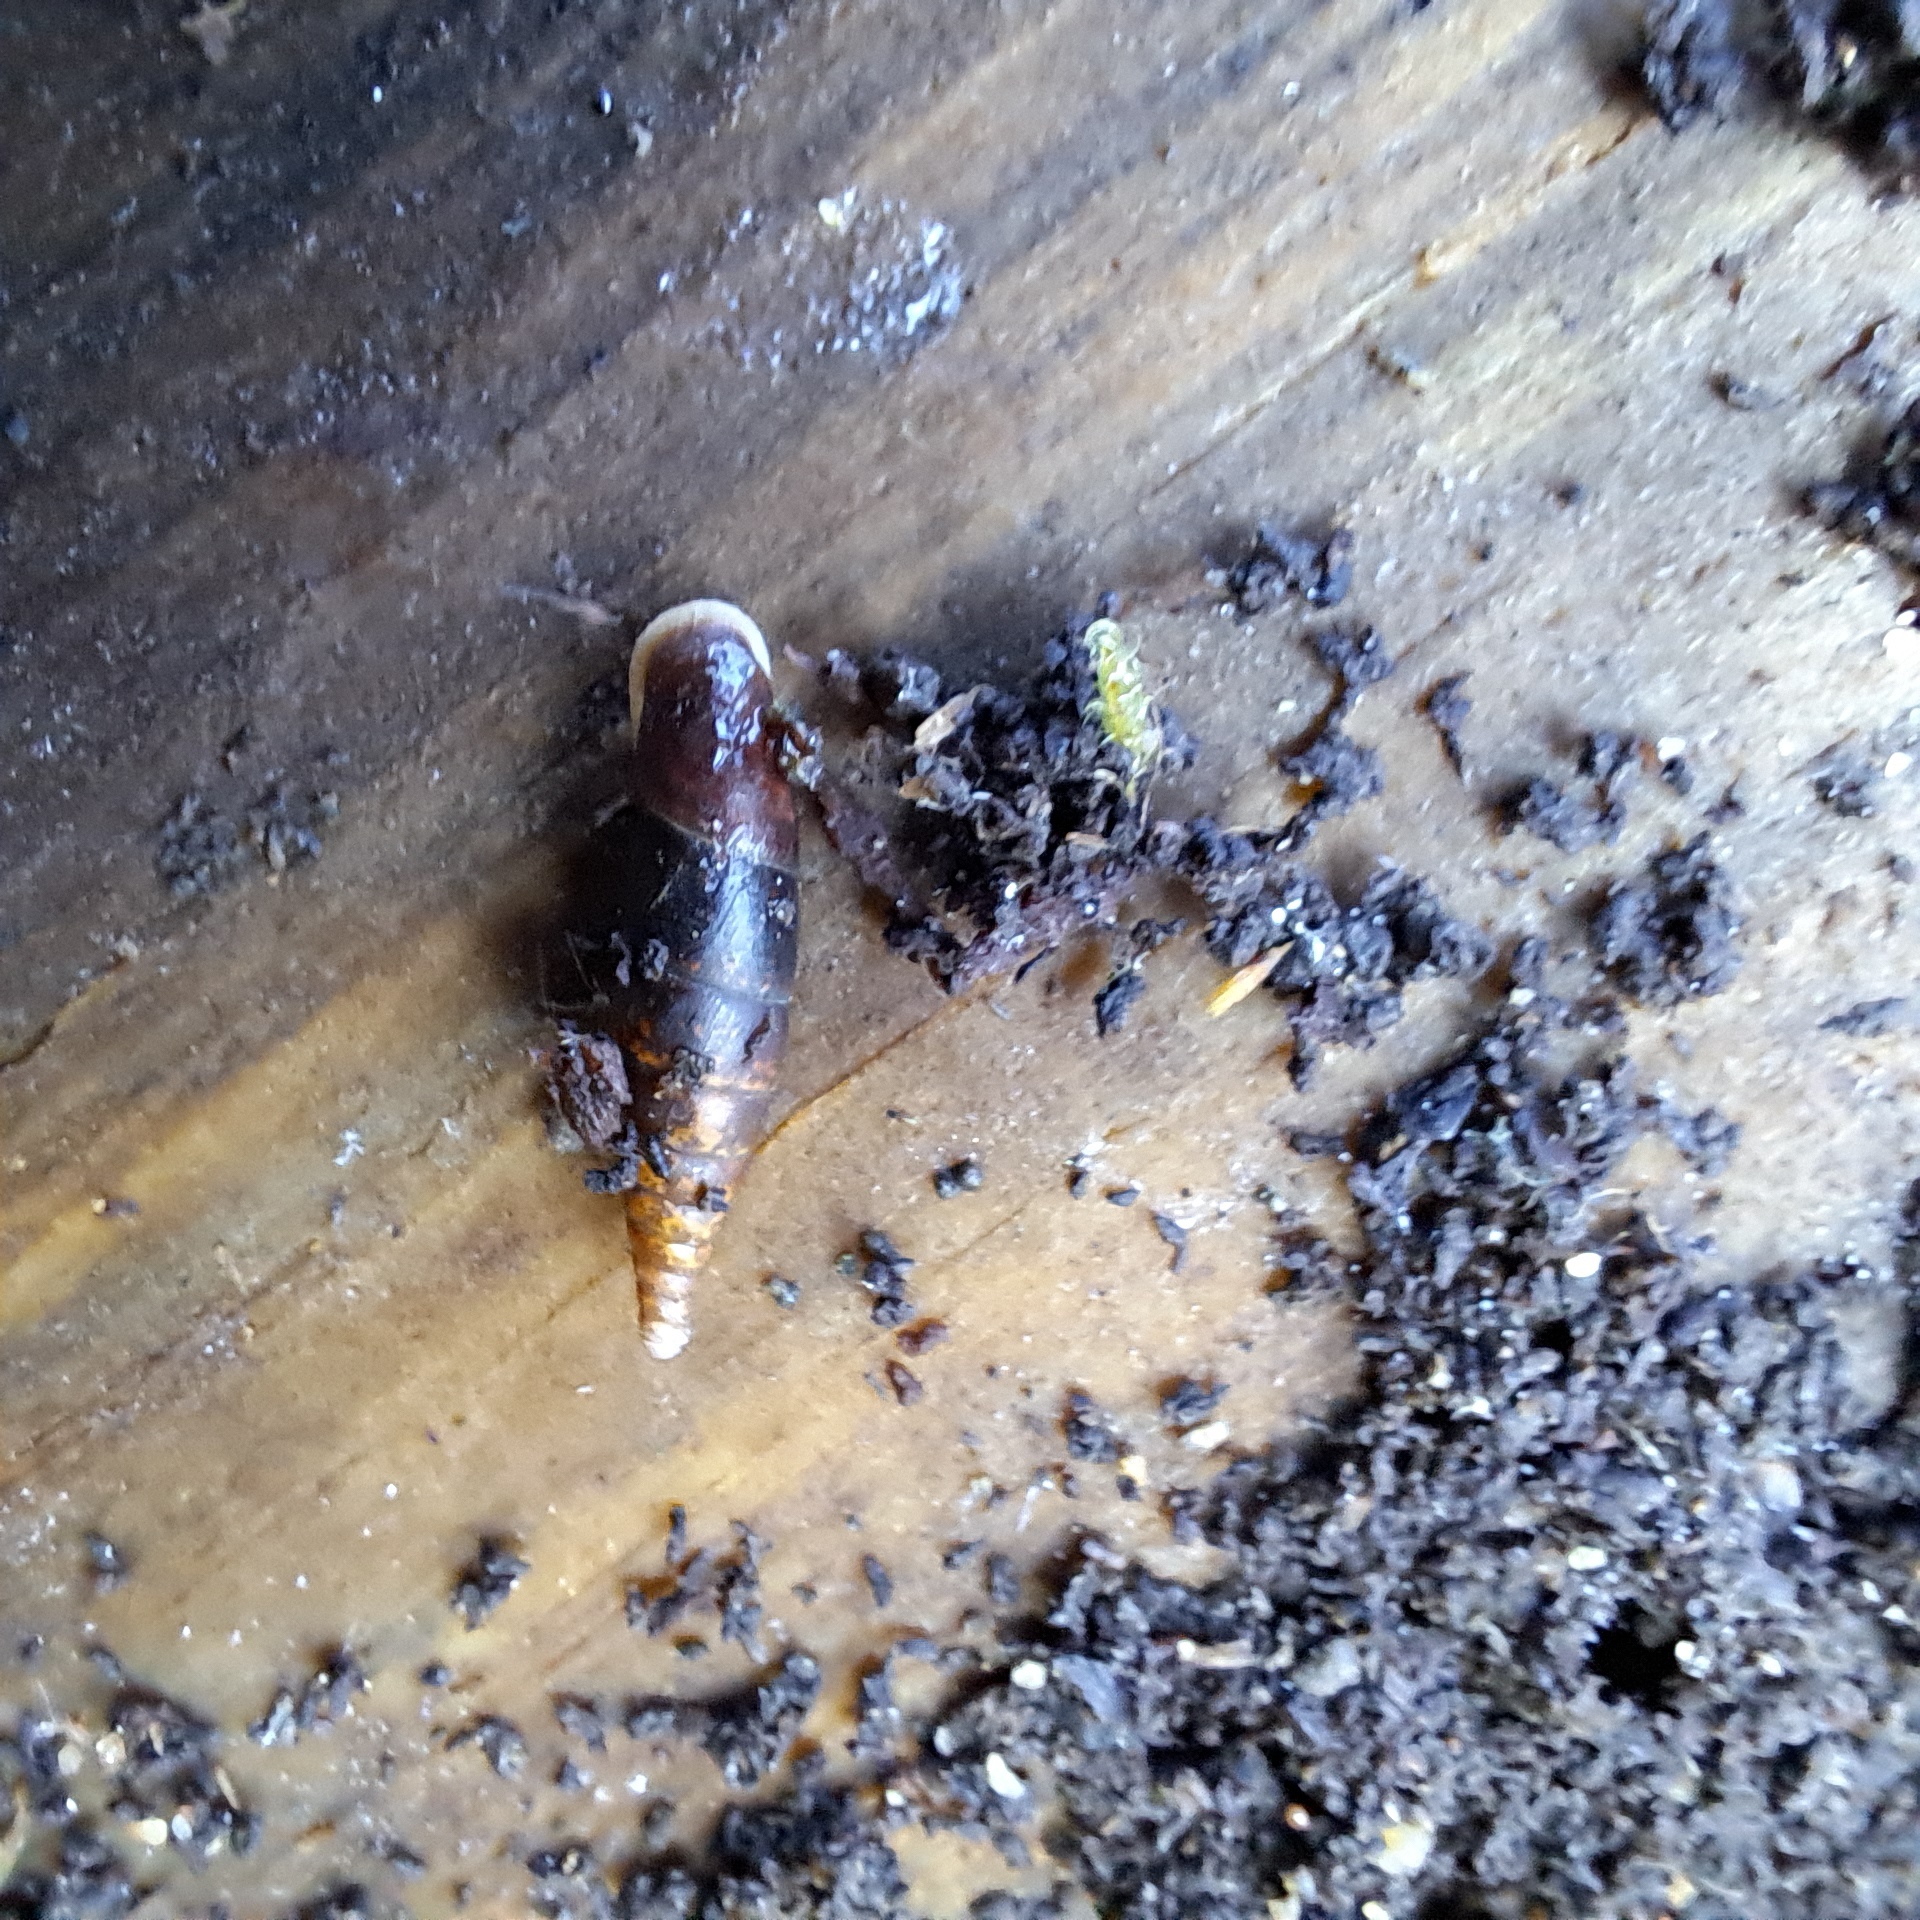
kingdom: Animalia
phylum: Mollusca
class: Gastropoda
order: Stylommatophora
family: Clausiliidae
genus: Cochlodina
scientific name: Cochlodina laminata
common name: Plaited door snail
